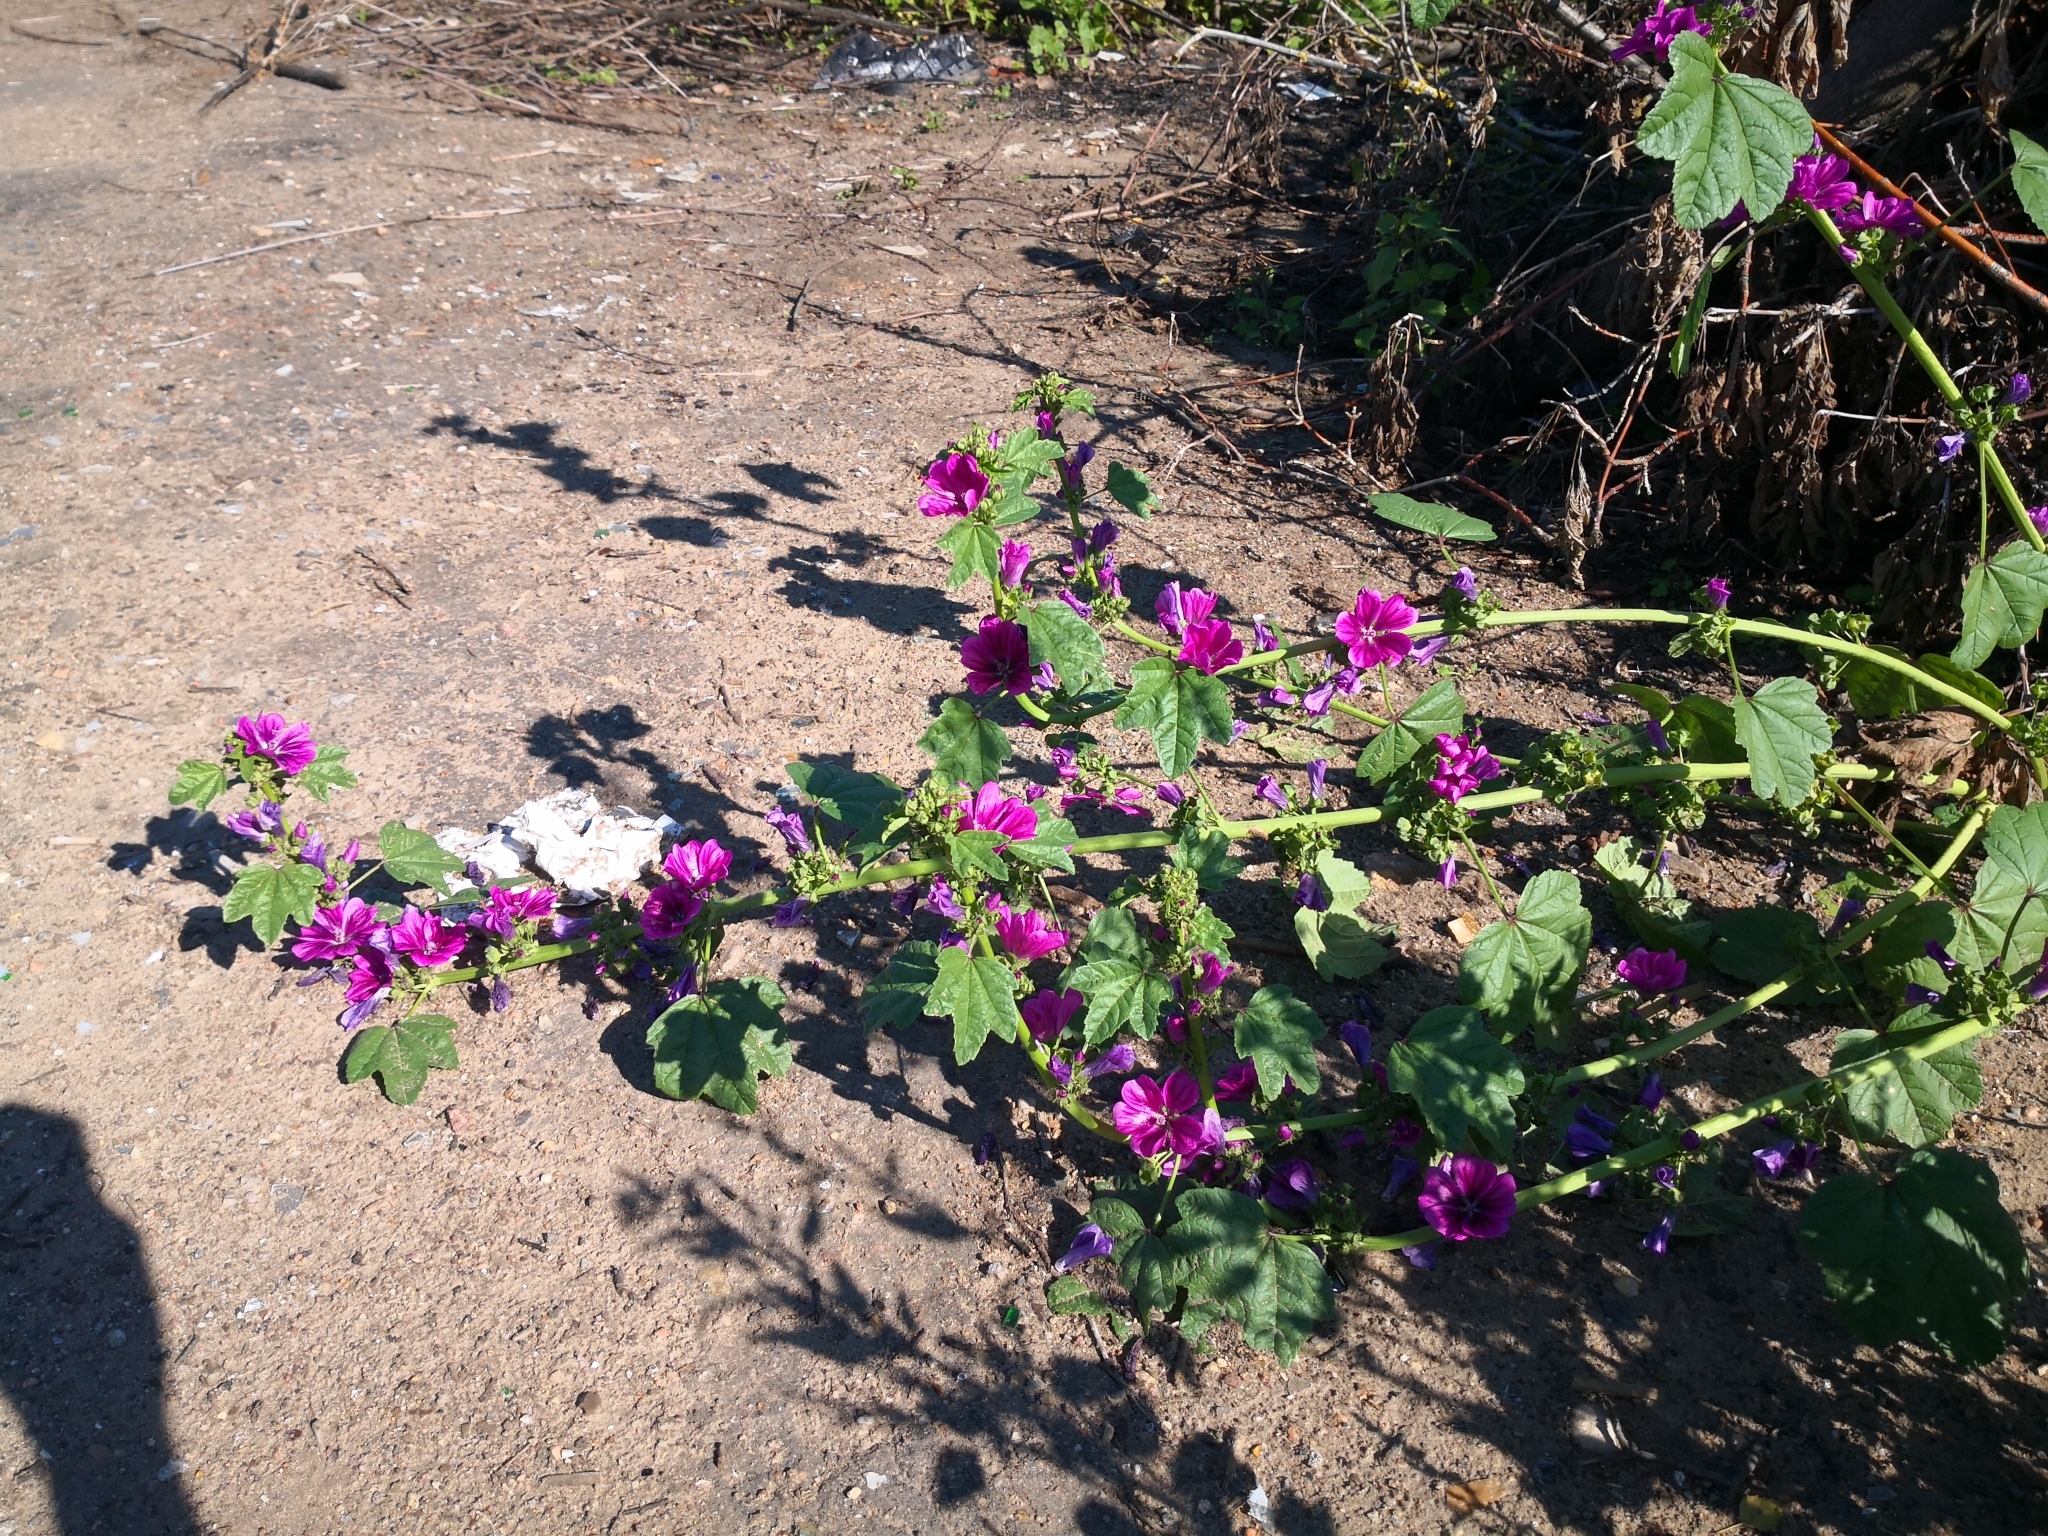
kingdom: Plantae
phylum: Tracheophyta
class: Magnoliopsida
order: Malvales
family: Malvaceae
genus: Malva
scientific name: Malva sylvestris
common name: Common mallow
